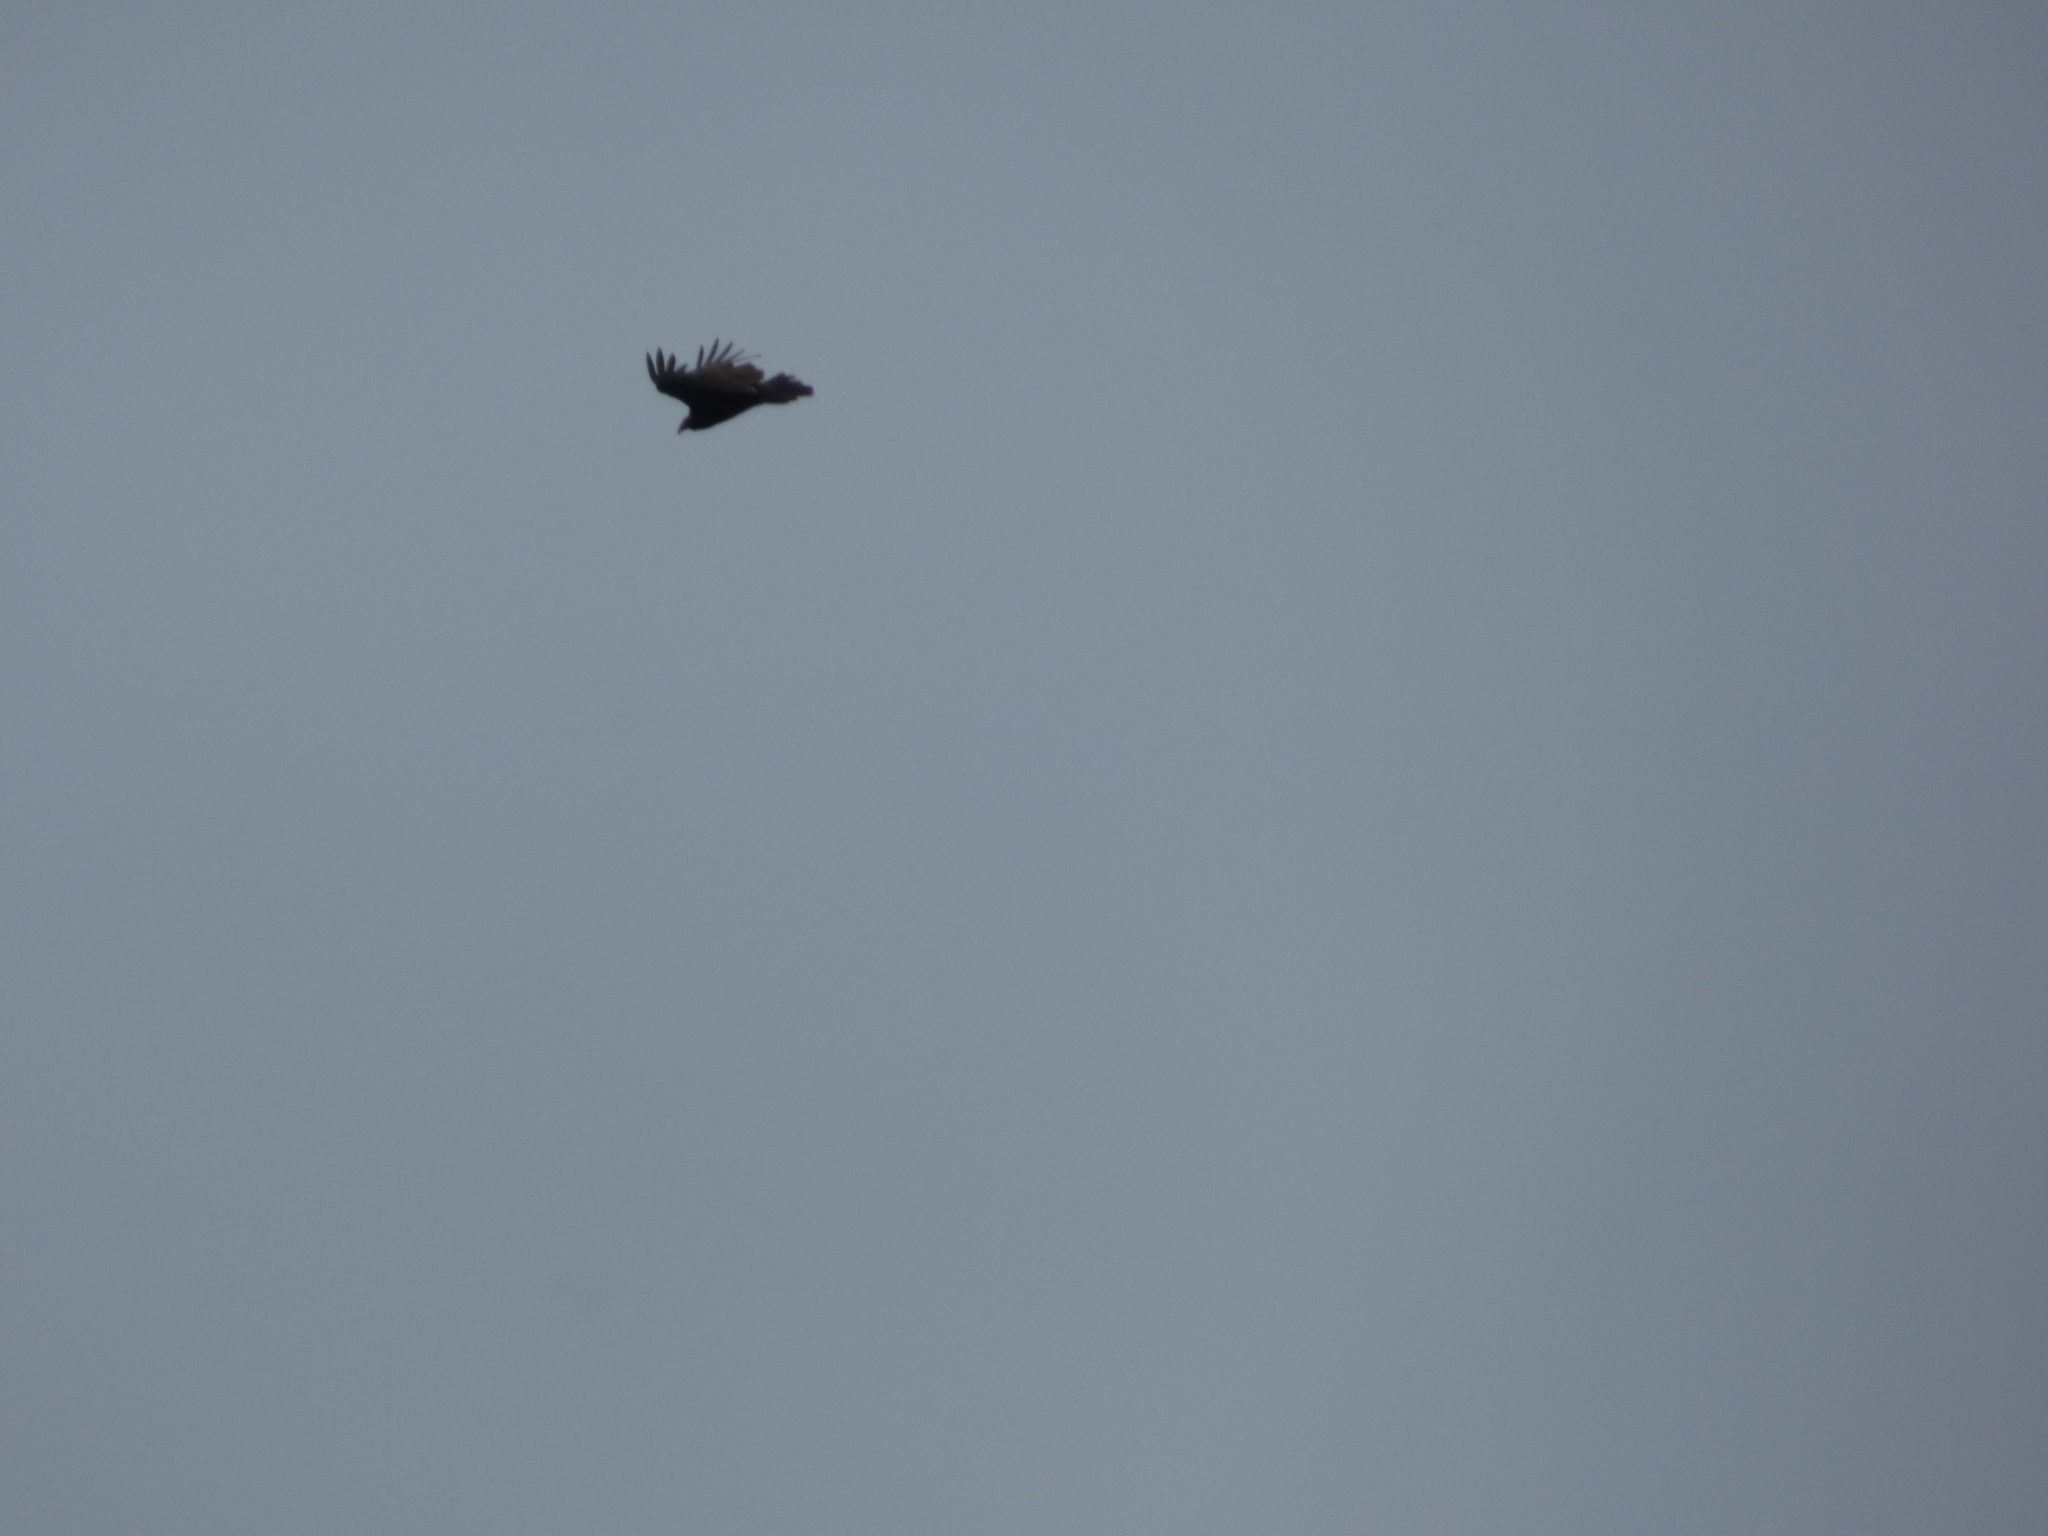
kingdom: Animalia
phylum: Chordata
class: Aves
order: Accipitriformes
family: Cathartidae
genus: Cathartes
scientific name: Cathartes aura
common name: Turkey vulture
